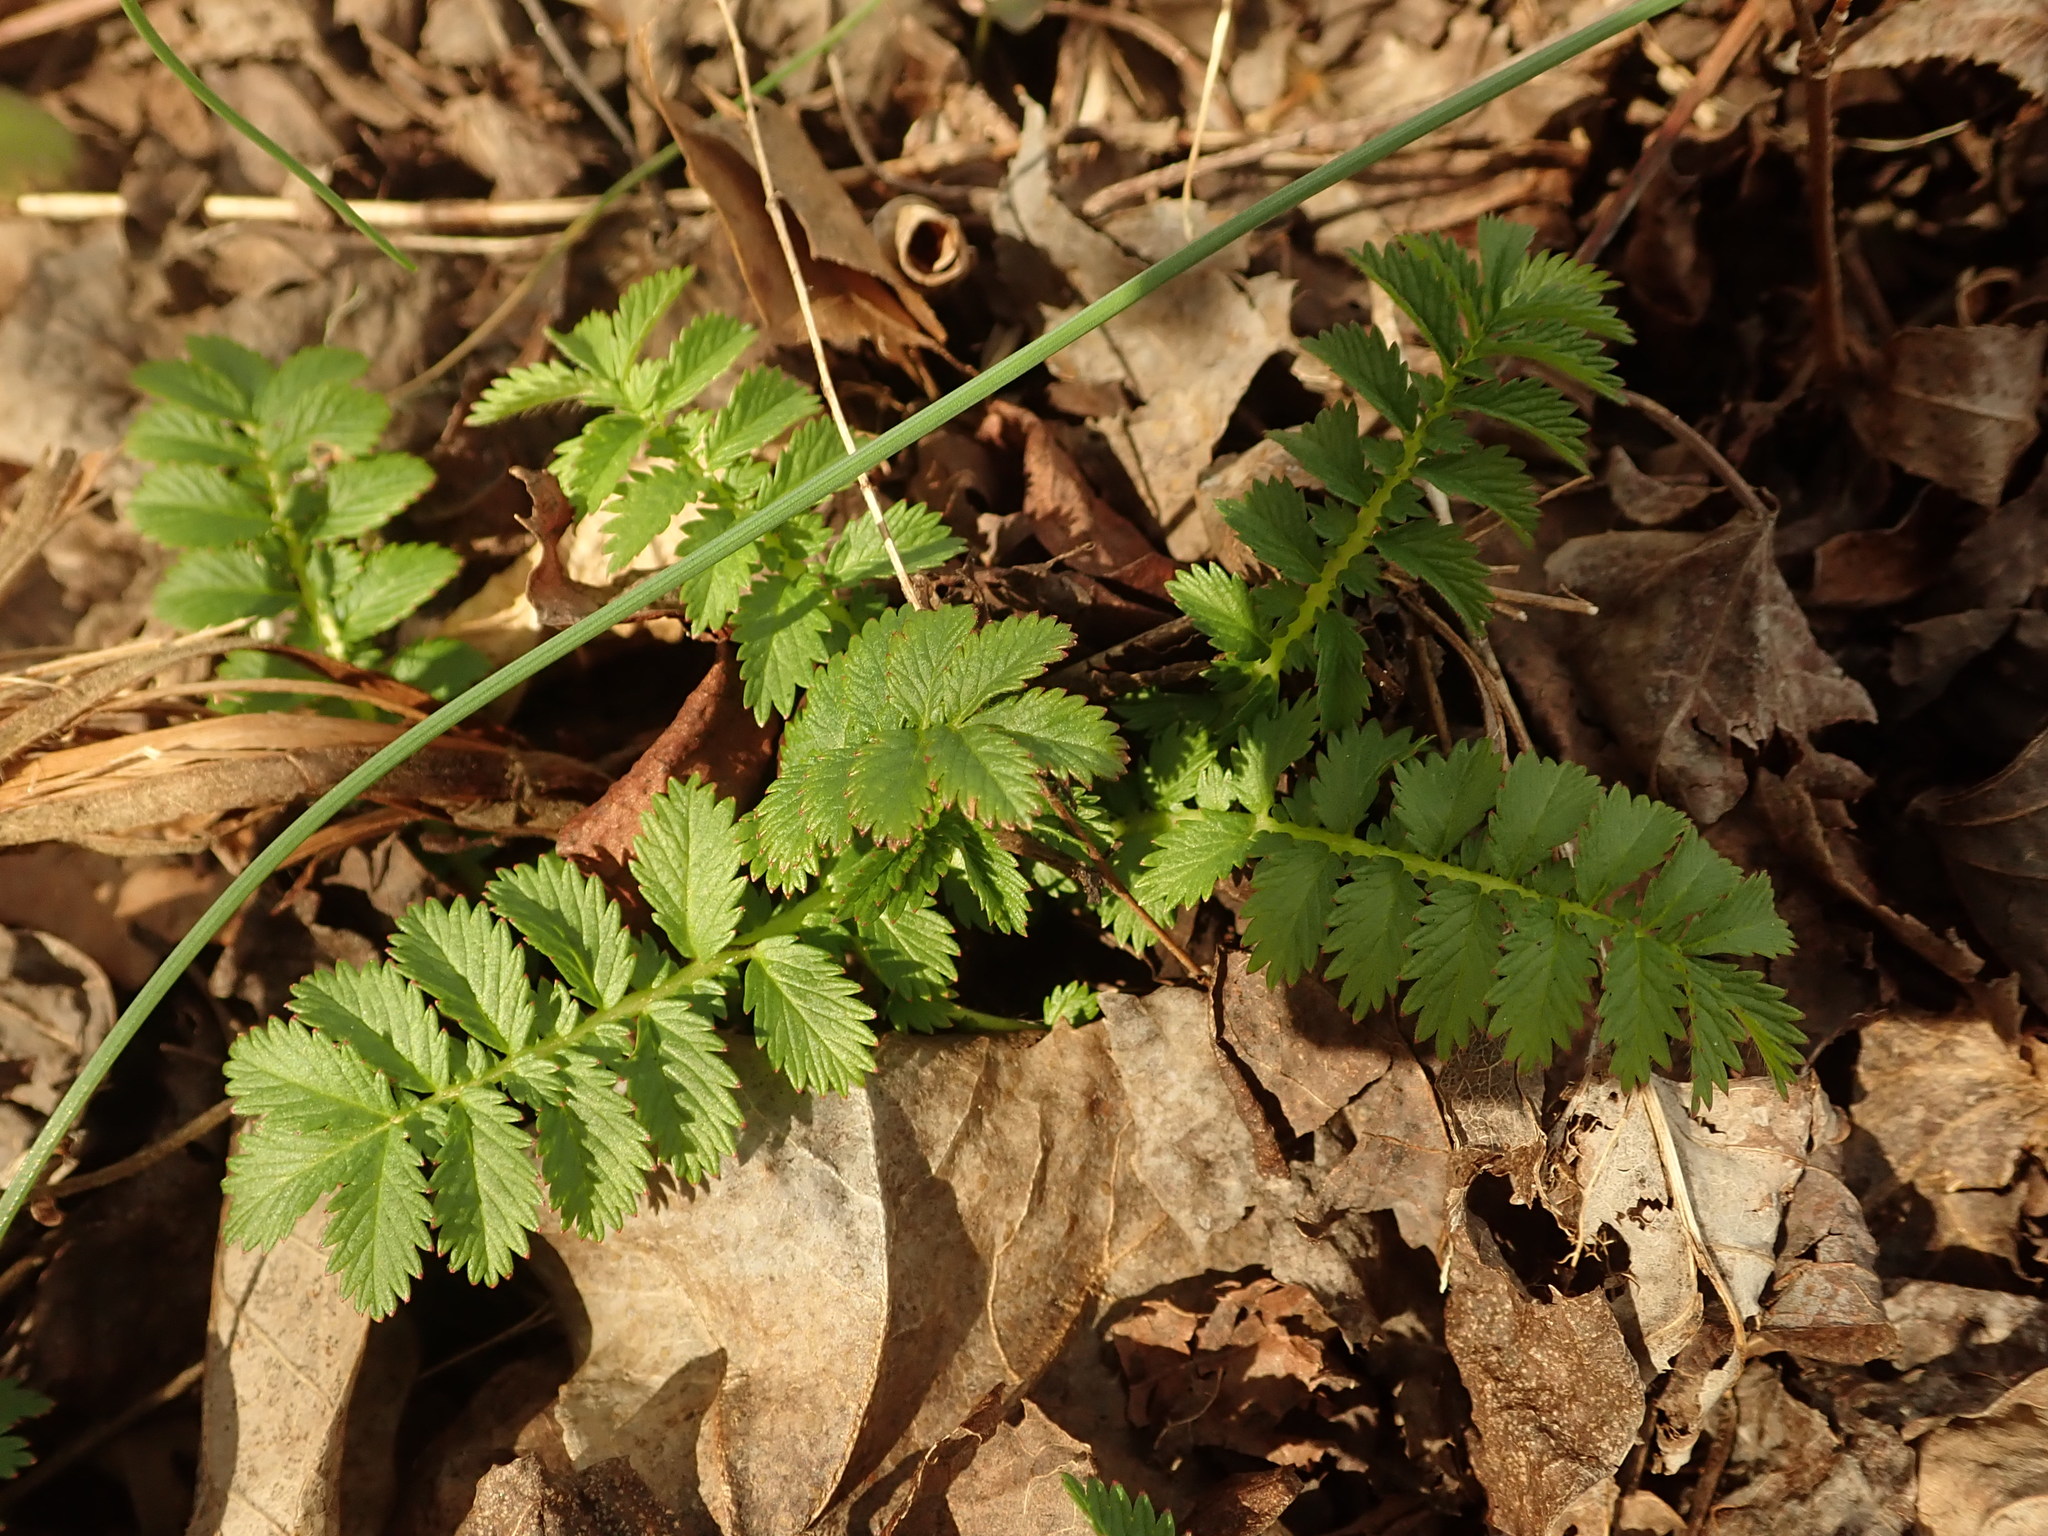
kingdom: Plantae
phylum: Tracheophyta
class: Magnoliopsida
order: Rosales
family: Rosaceae
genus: Agrimonia
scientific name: Agrimonia parviflora
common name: Harvest-lice
